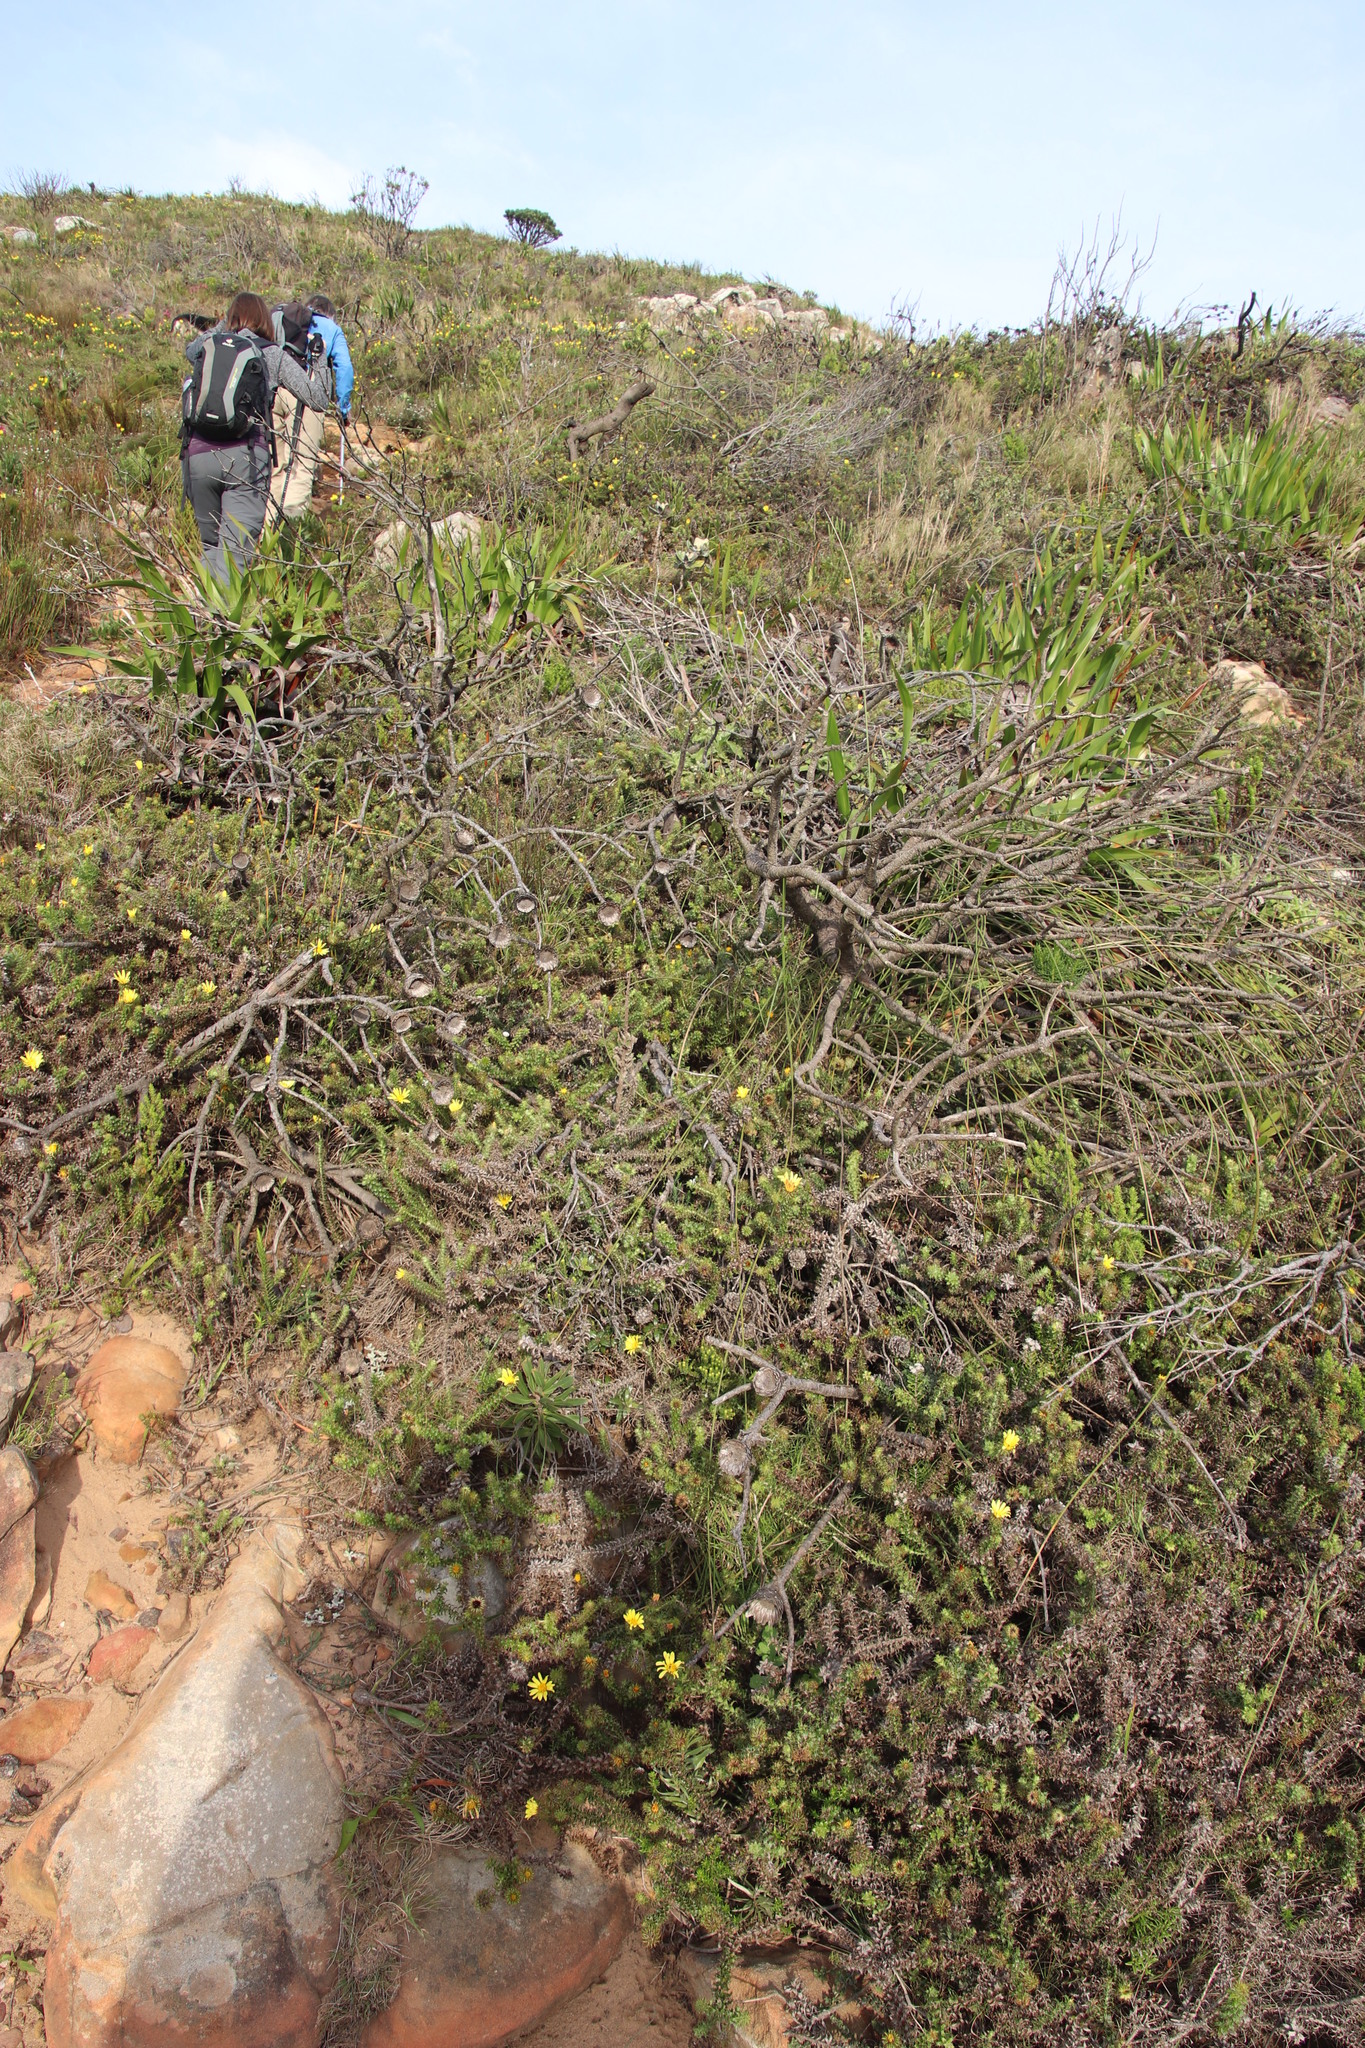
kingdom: Plantae
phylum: Tracheophyta
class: Magnoliopsida
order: Asterales
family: Asteraceae
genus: Cullumia
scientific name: Cullumia setosa
